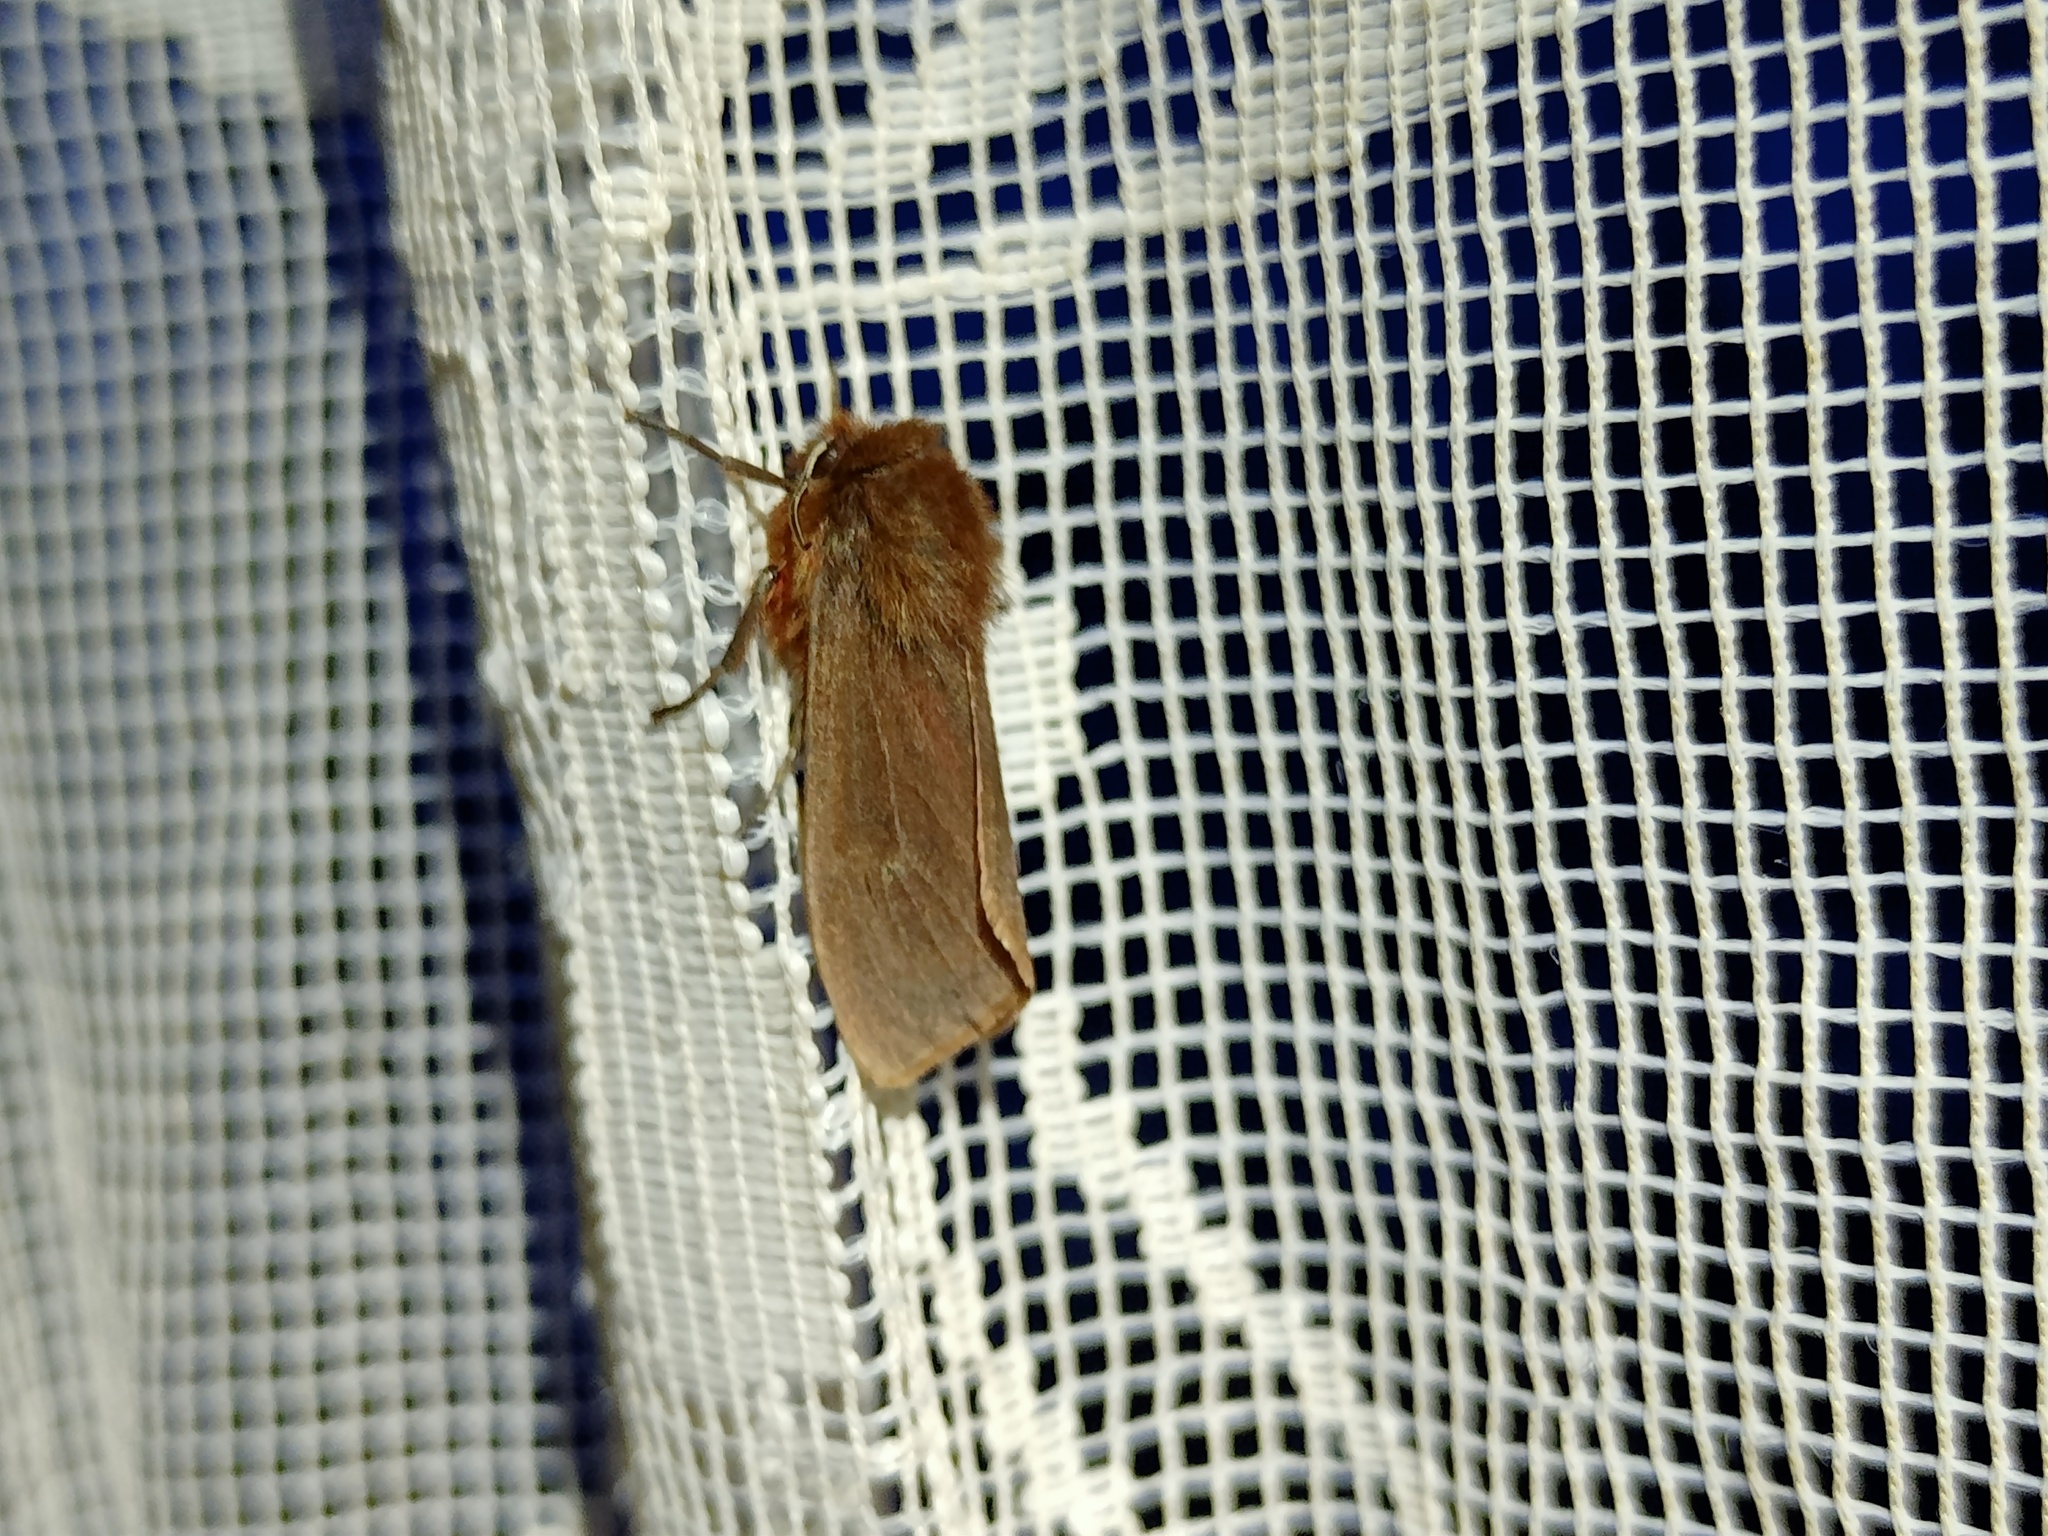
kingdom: Animalia
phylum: Arthropoda
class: Insecta
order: Lepidoptera
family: Erebidae
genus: Phragmatobia
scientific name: Phragmatobia fuliginosa
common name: Ruby tiger
